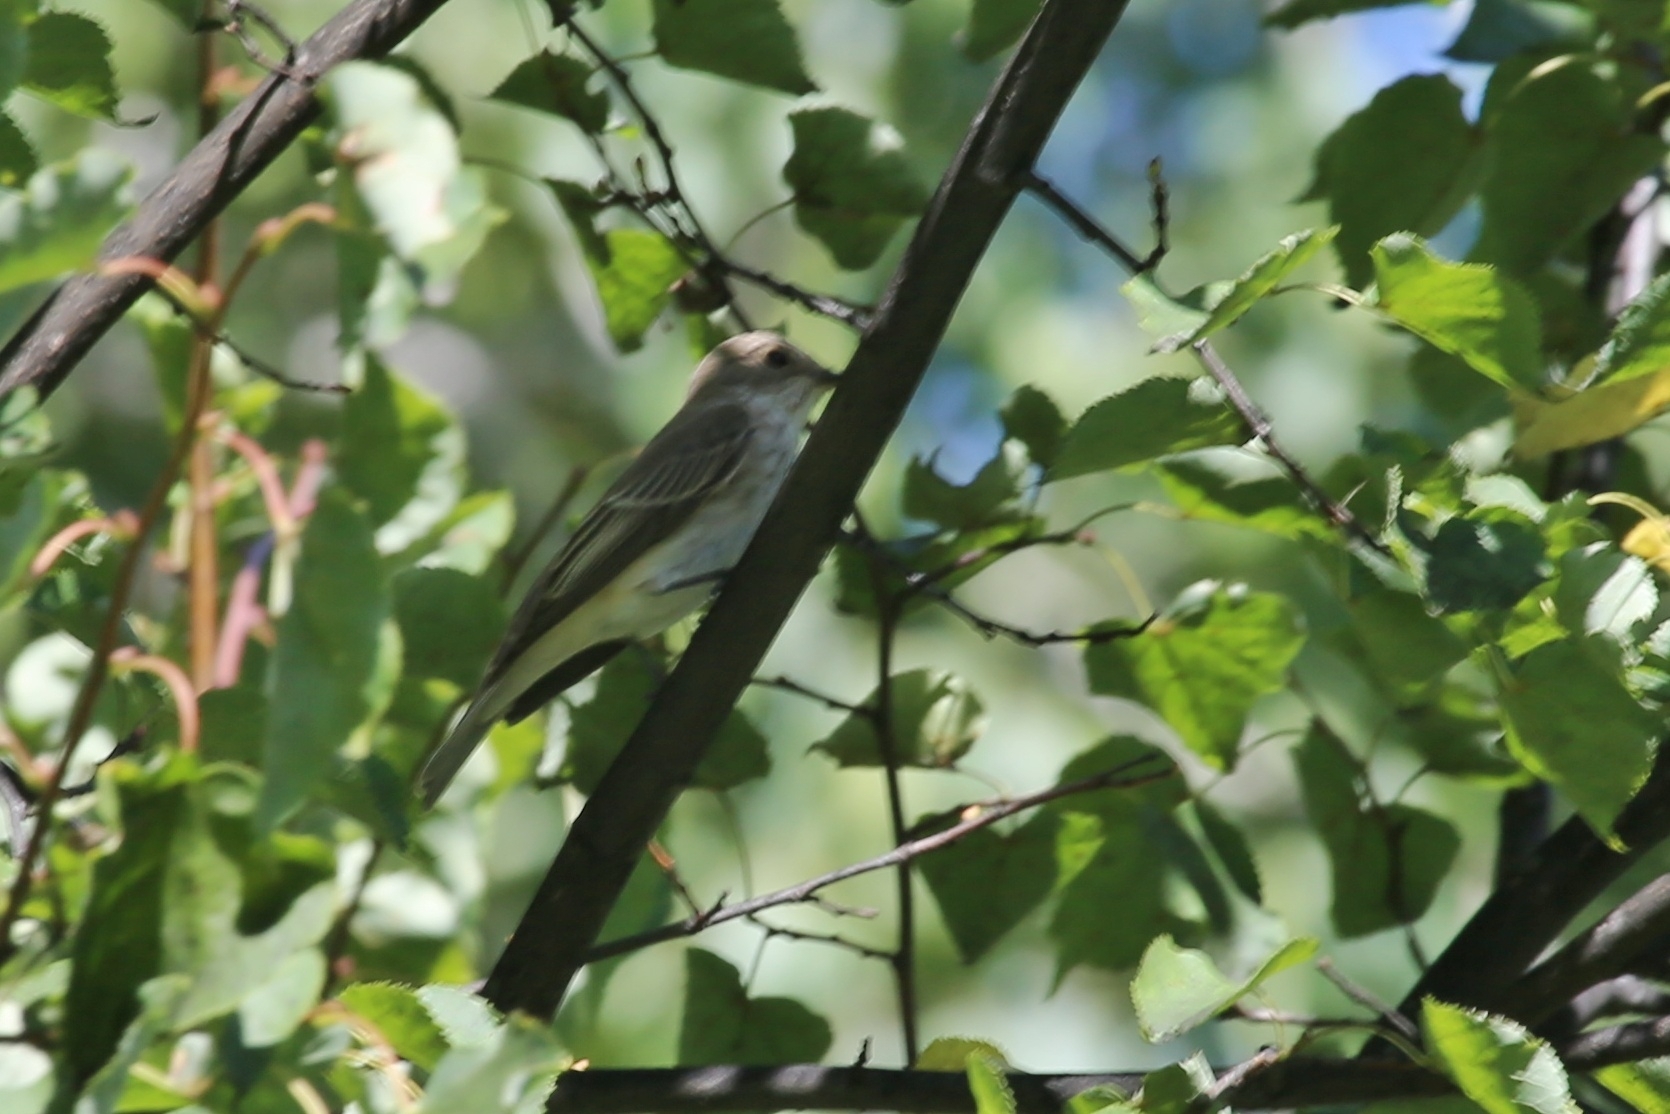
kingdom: Animalia
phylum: Chordata
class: Aves
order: Passeriformes
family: Muscicapidae
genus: Muscicapa
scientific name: Muscicapa striata
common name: Spotted flycatcher
